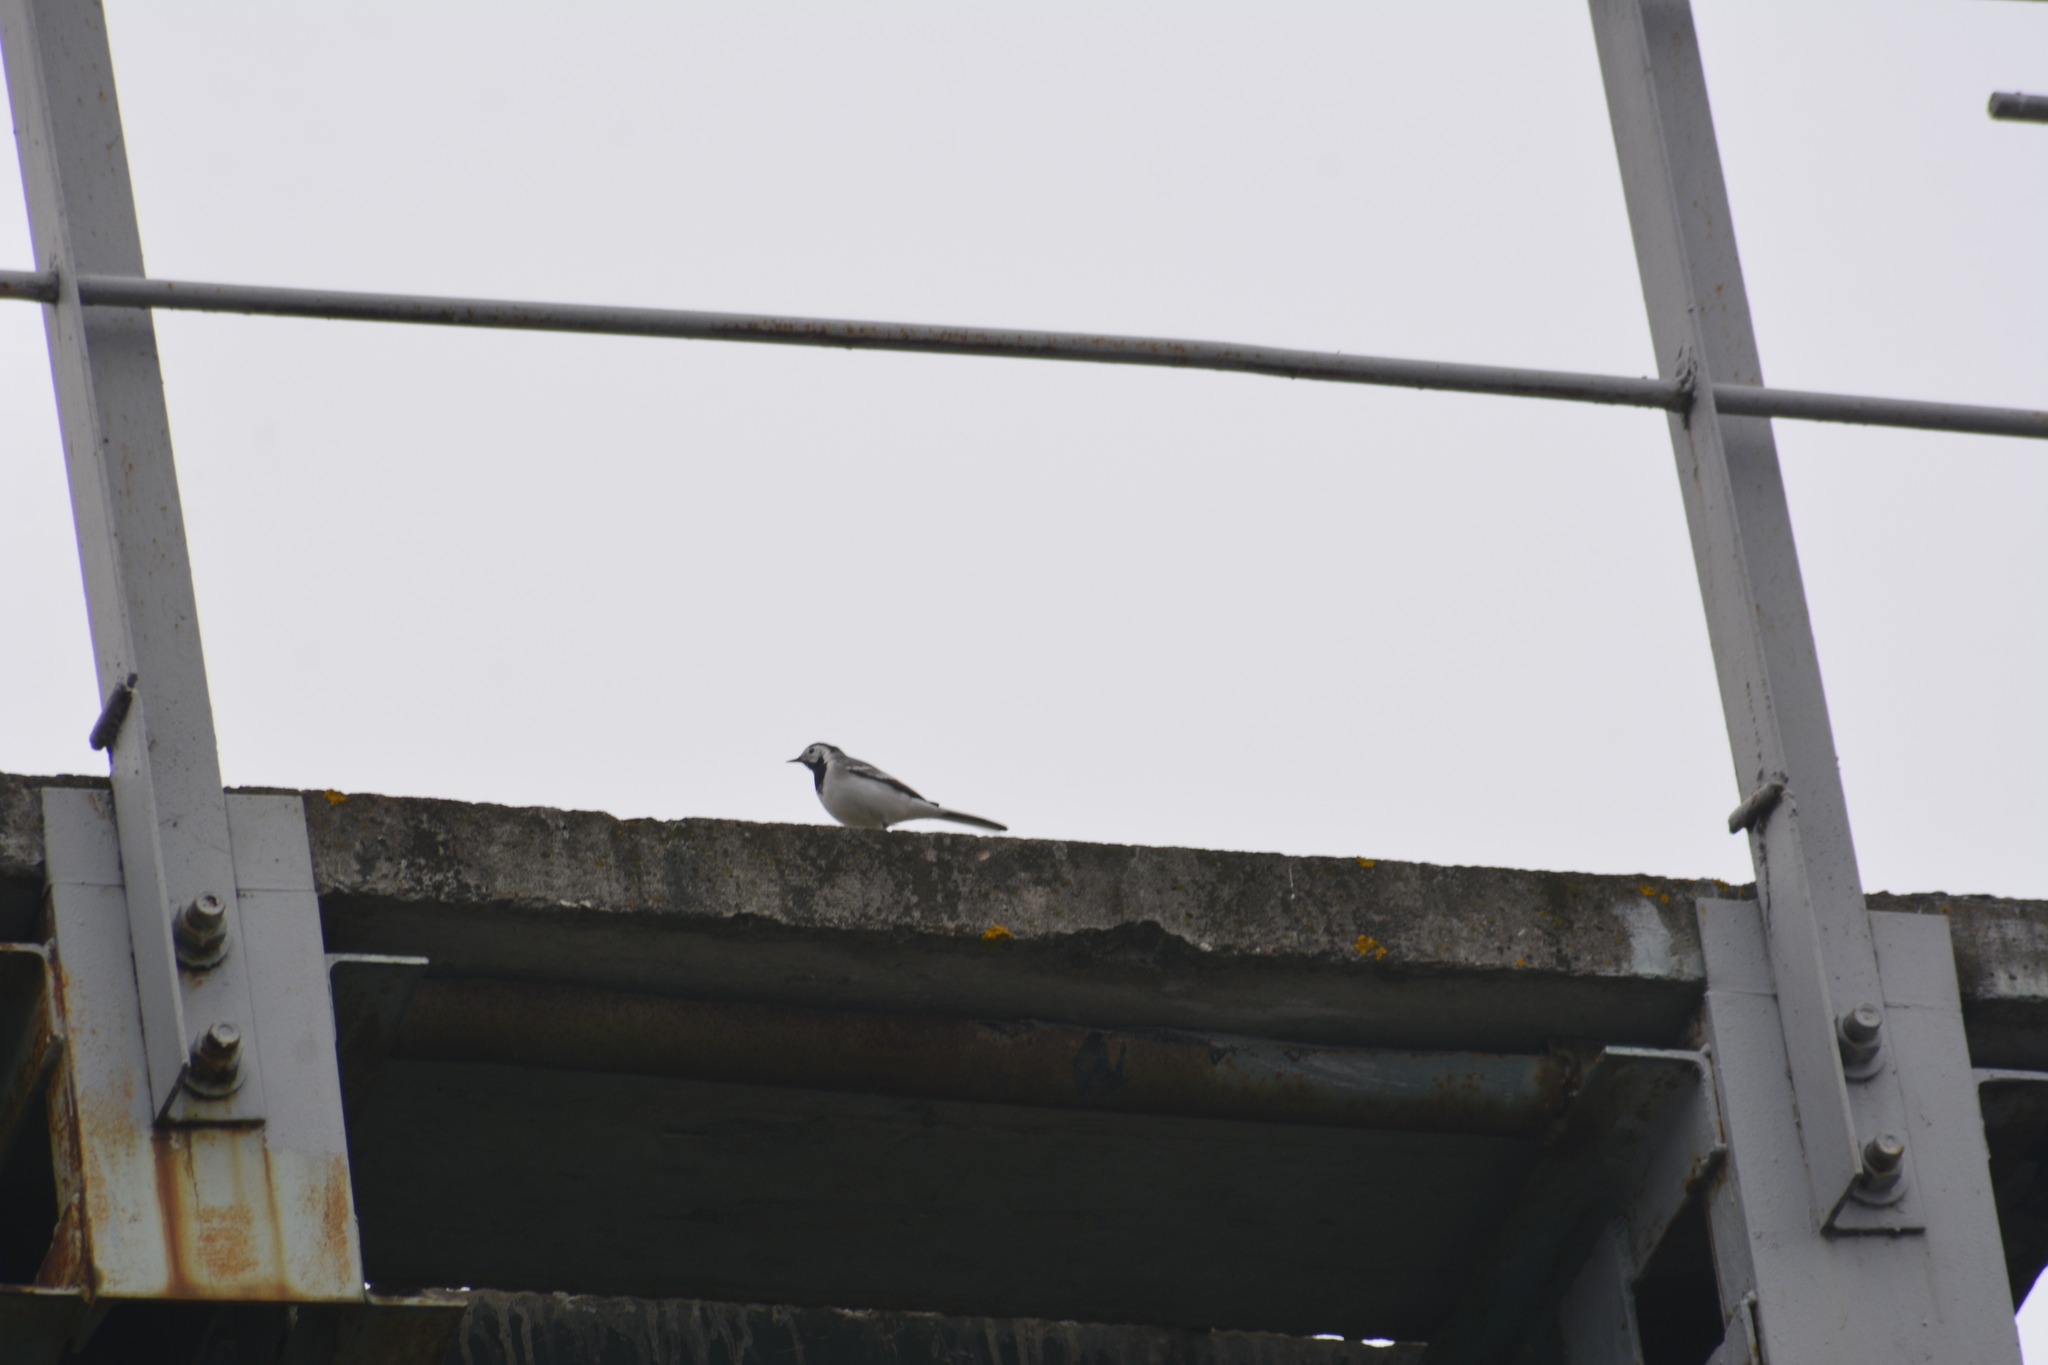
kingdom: Animalia
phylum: Chordata
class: Aves
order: Passeriformes
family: Motacillidae
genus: Motacilla
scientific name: Motacilla alba
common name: White wagtail
